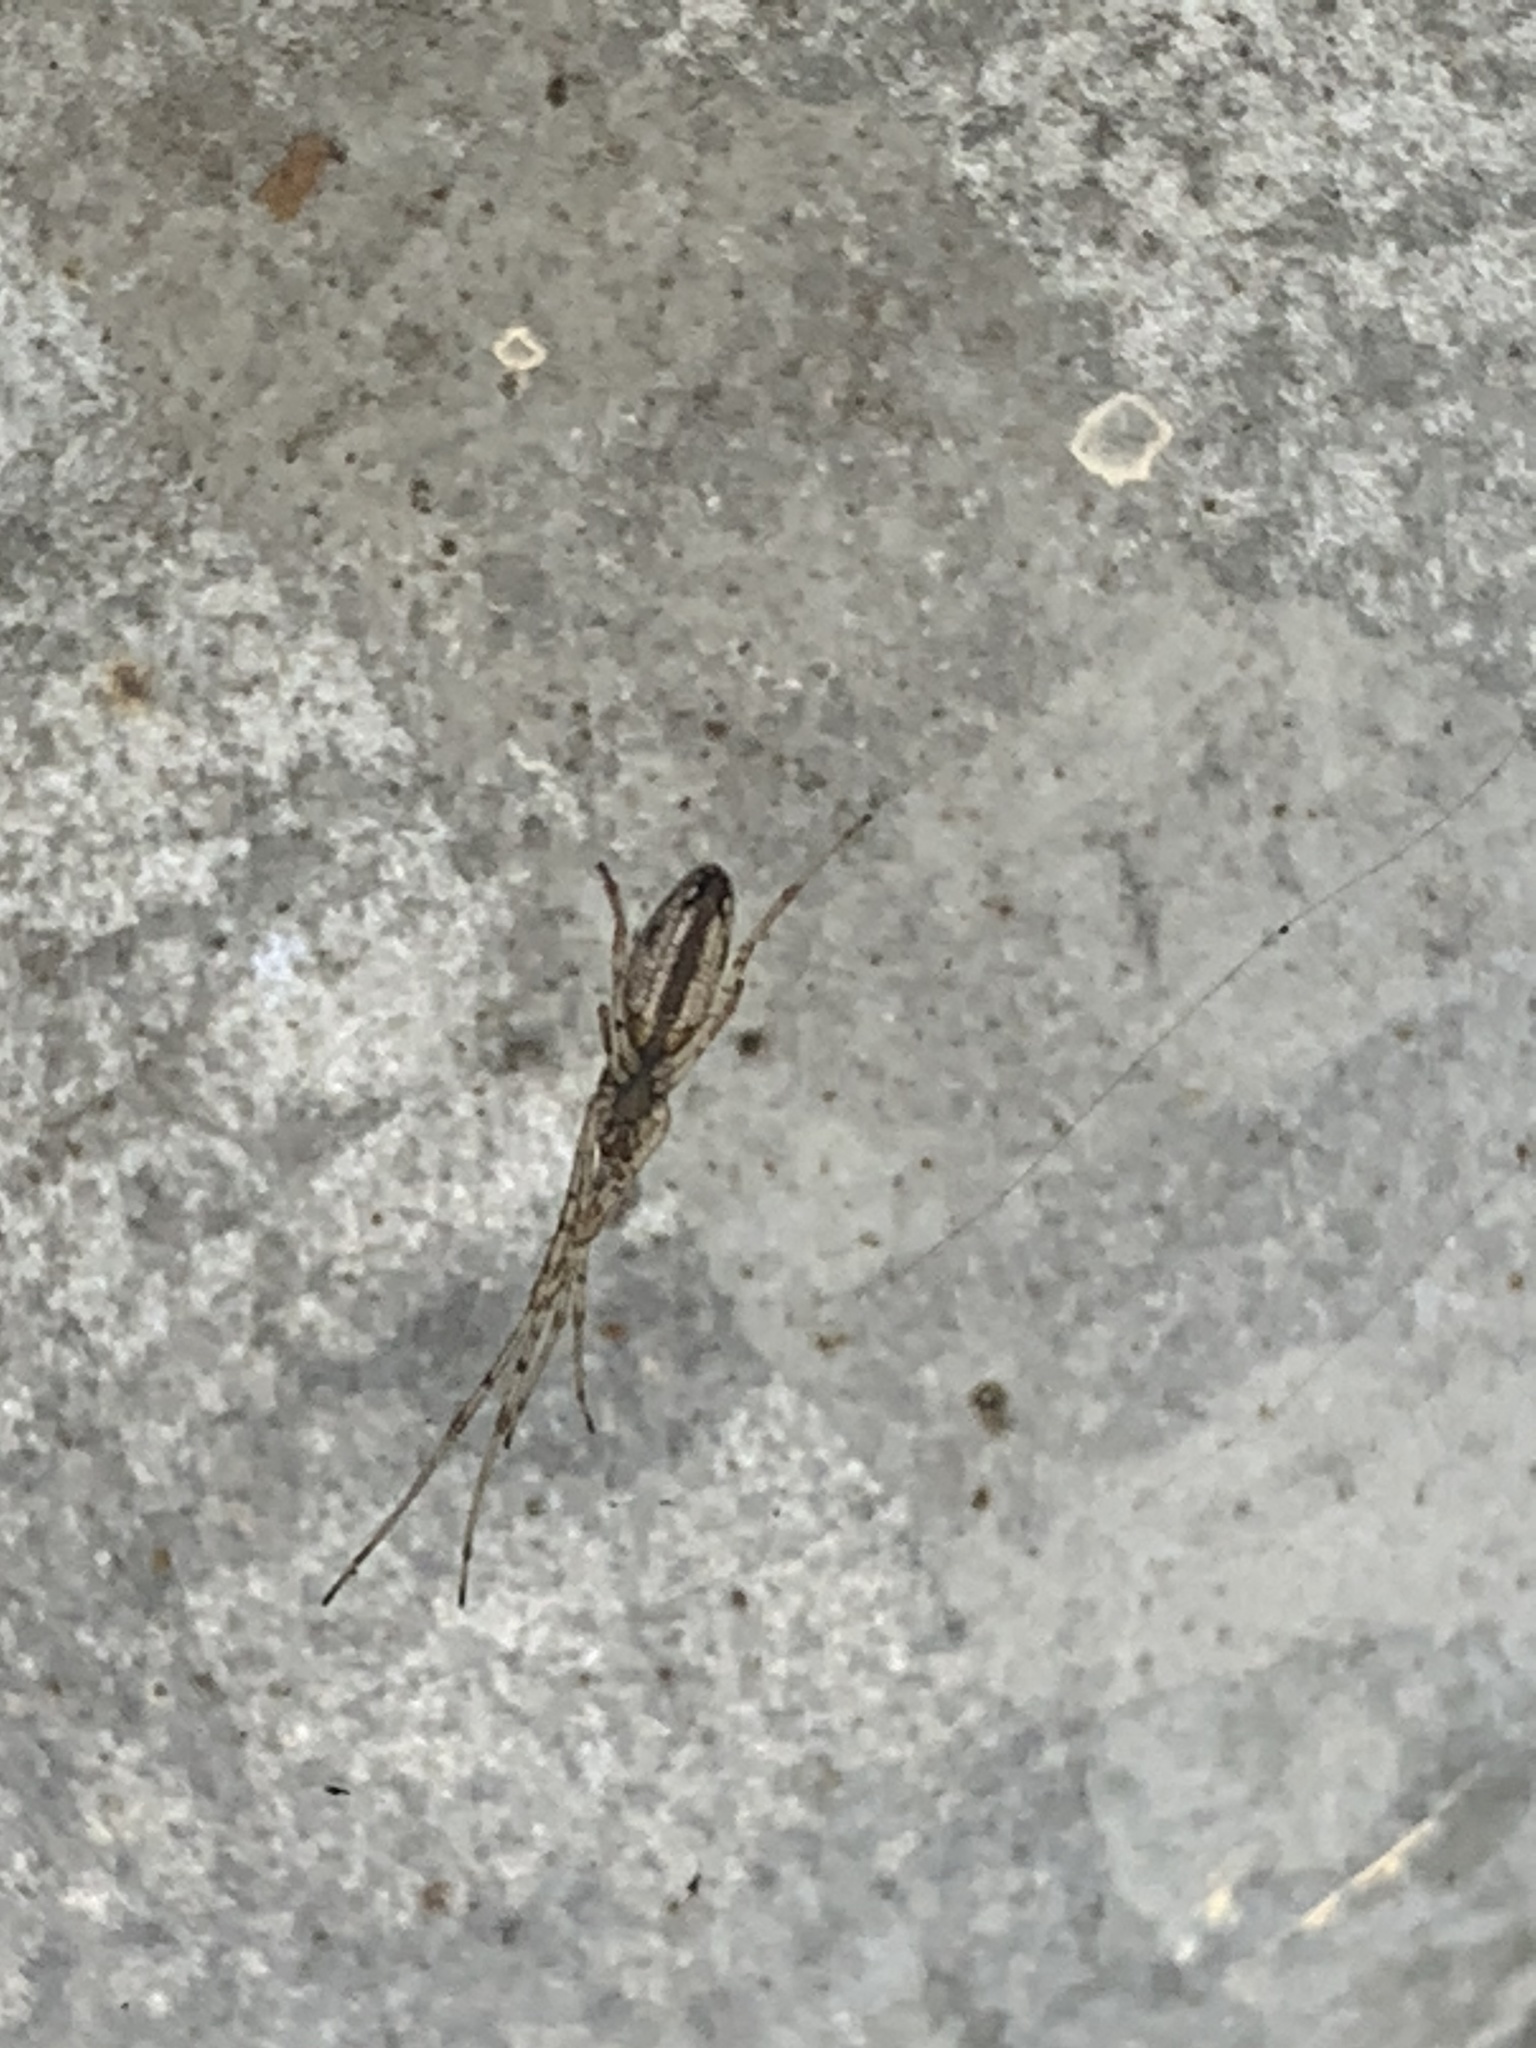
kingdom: Animalia
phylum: Arthropoda
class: Arachnida
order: Araneae
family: Tetragnathidae
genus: Tetragnatha
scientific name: Tetragnatha
